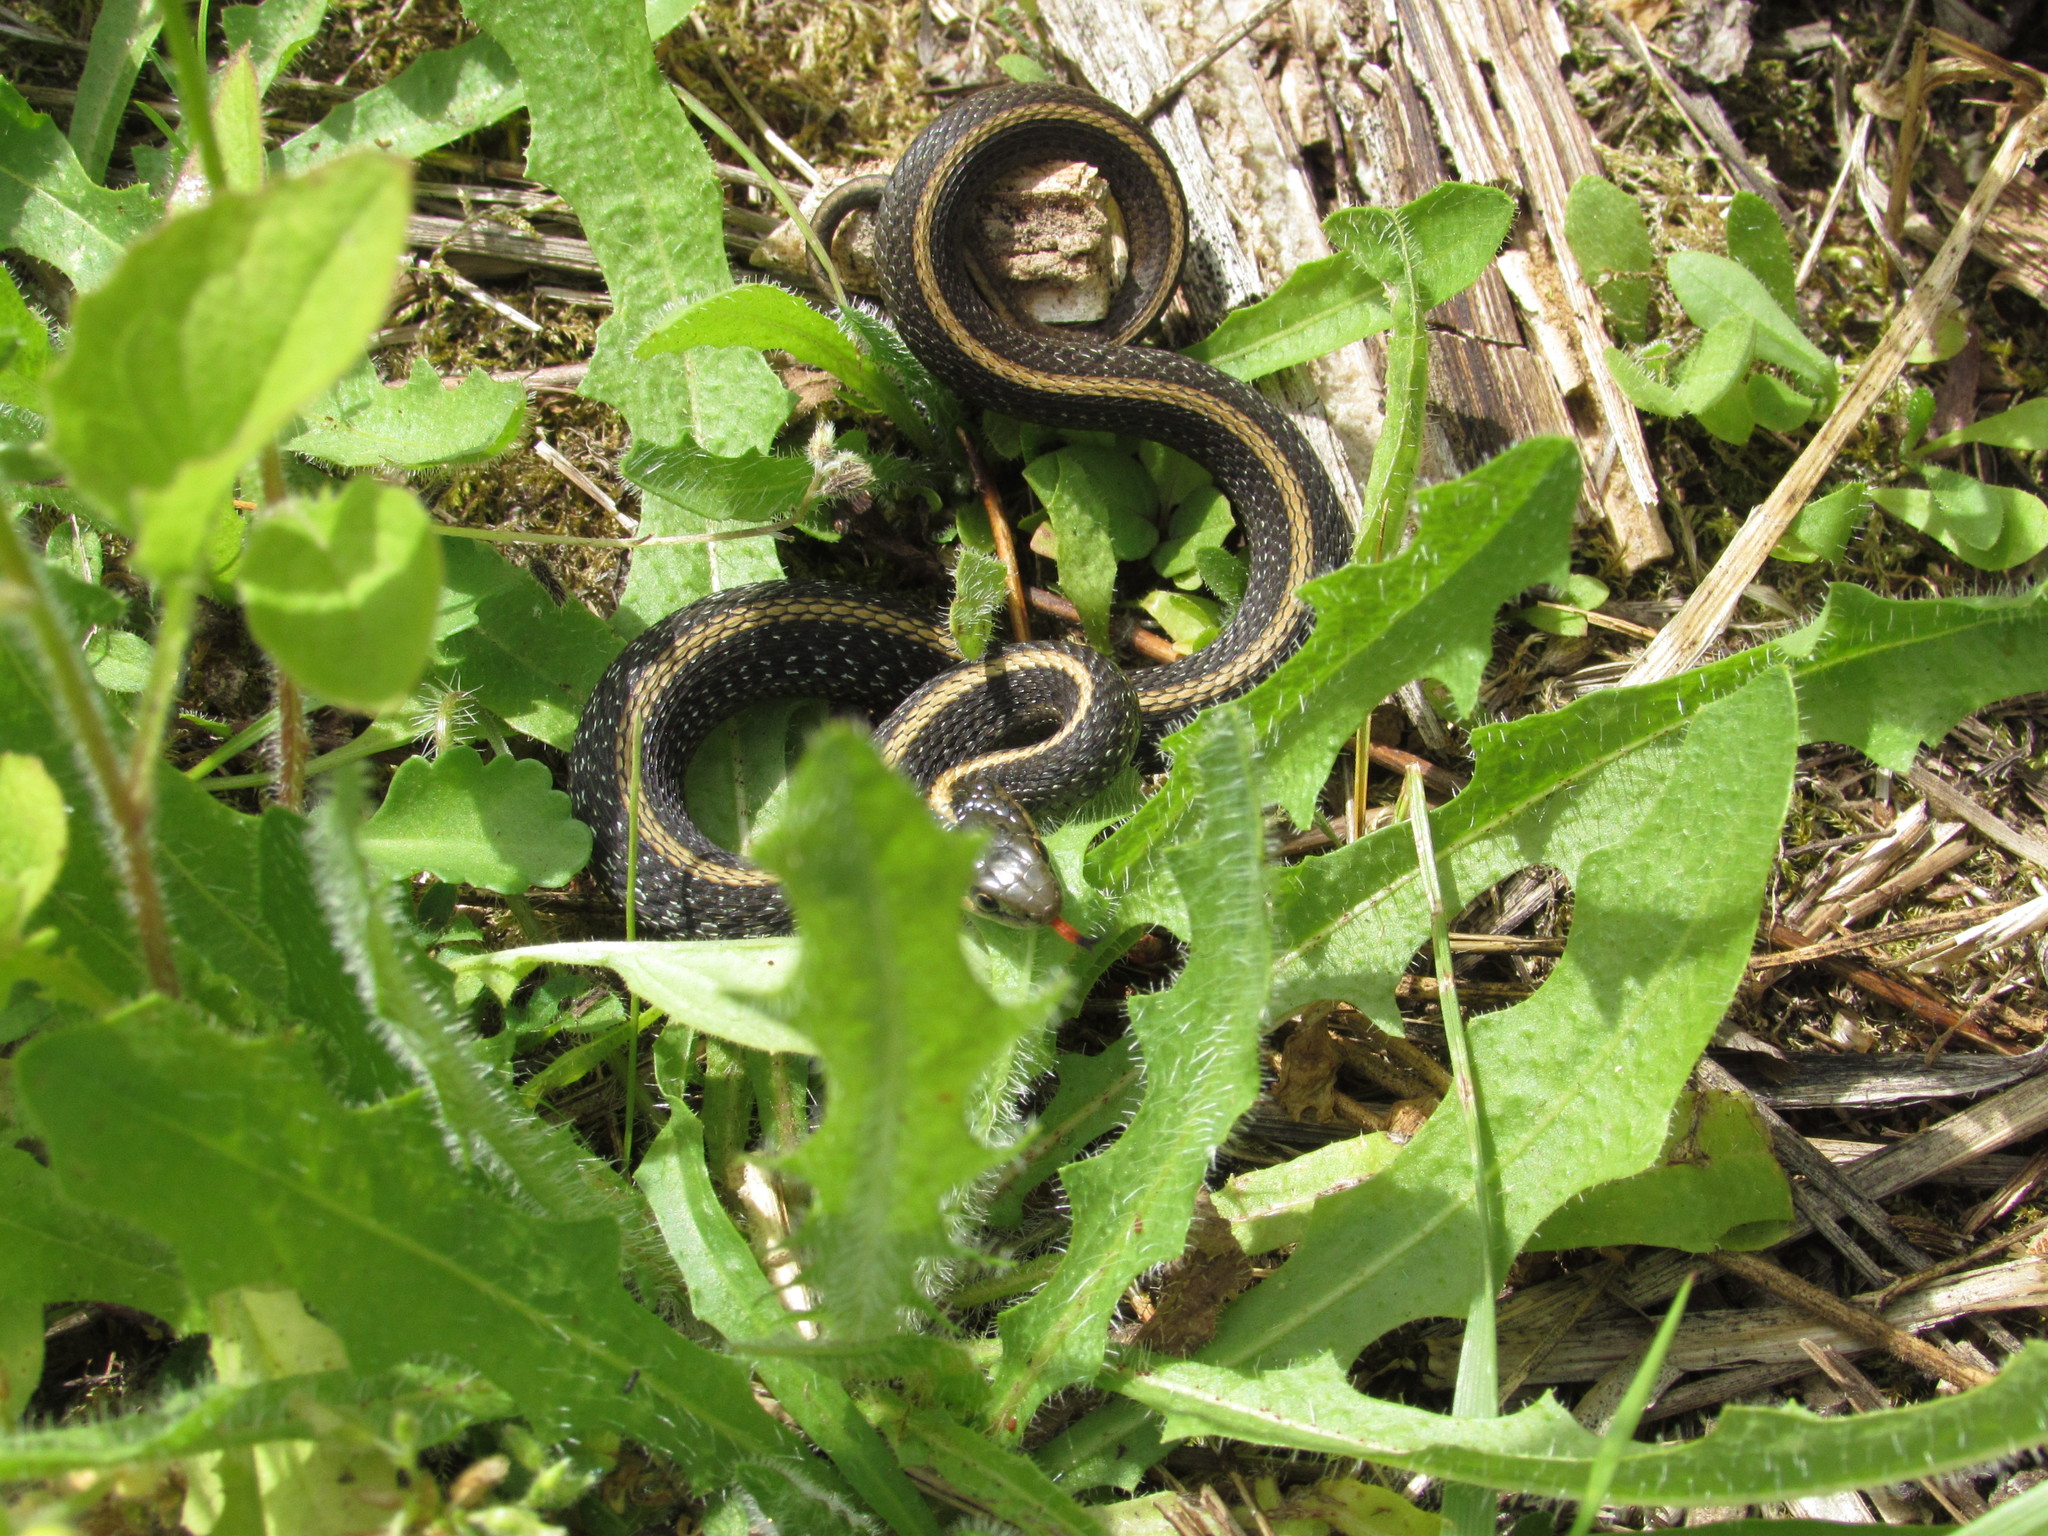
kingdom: Animalia
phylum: Chordata
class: Squamata
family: Colubridae
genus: Thamnophis
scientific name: Thamnophis ordinoides
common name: Northwestern garter snake
